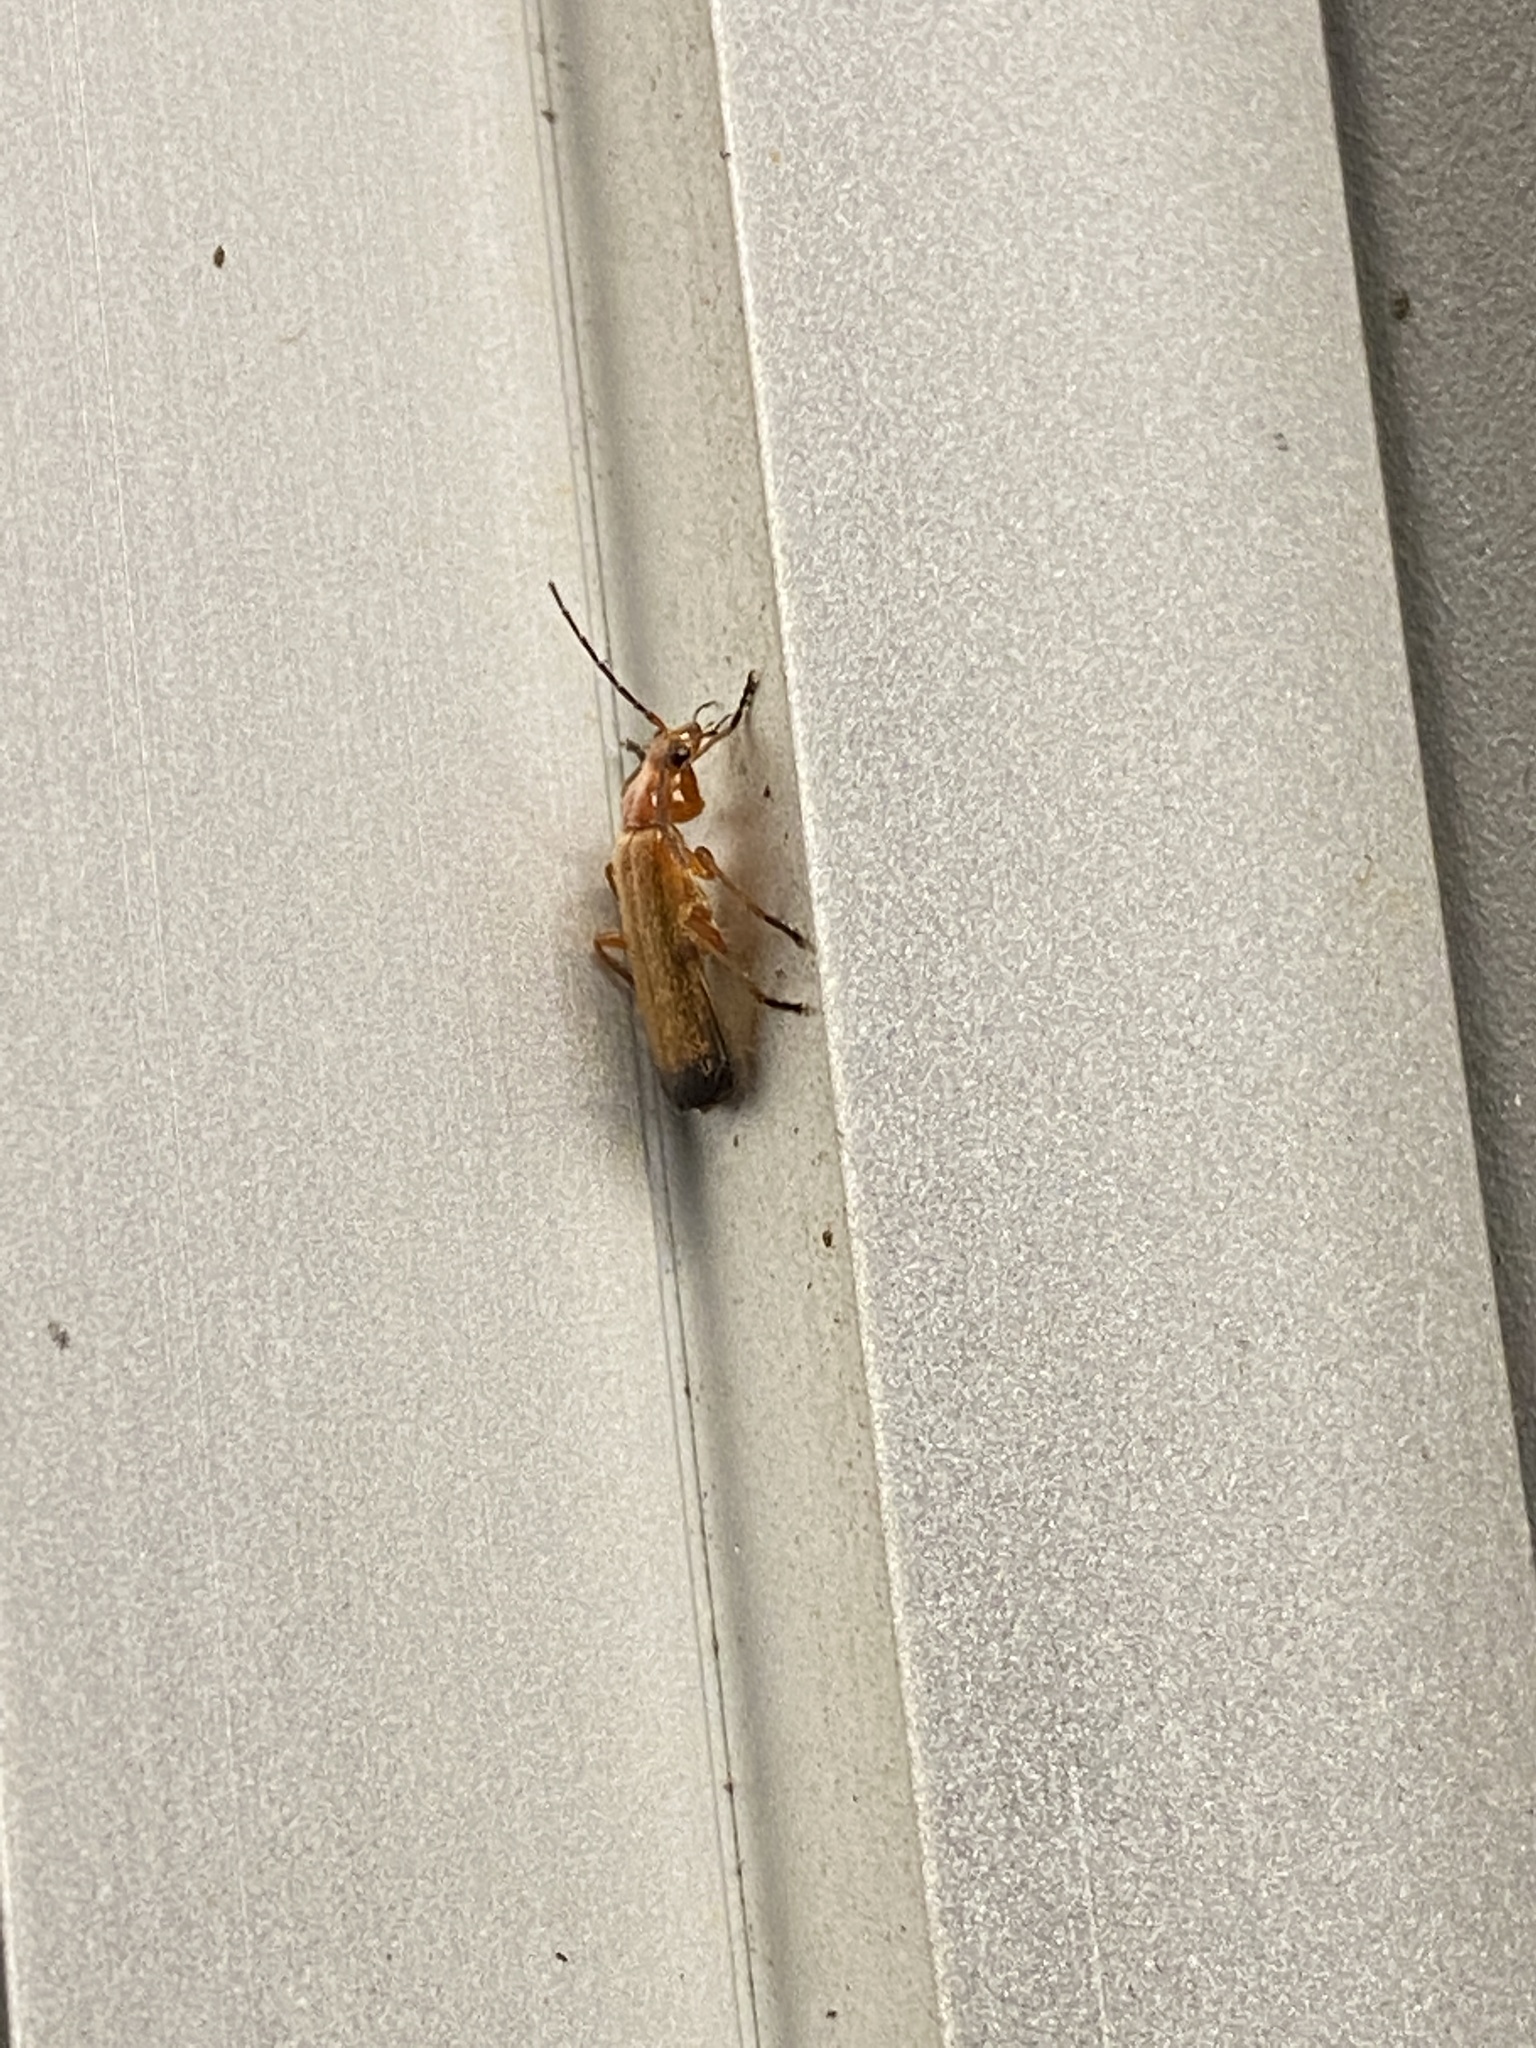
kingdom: Animalia
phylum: Arthropoda
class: Insecta
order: Coleoptera
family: Cantharidae
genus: Rhagonycha
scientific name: Rhagonycha fulva
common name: Common red soldier beetle
